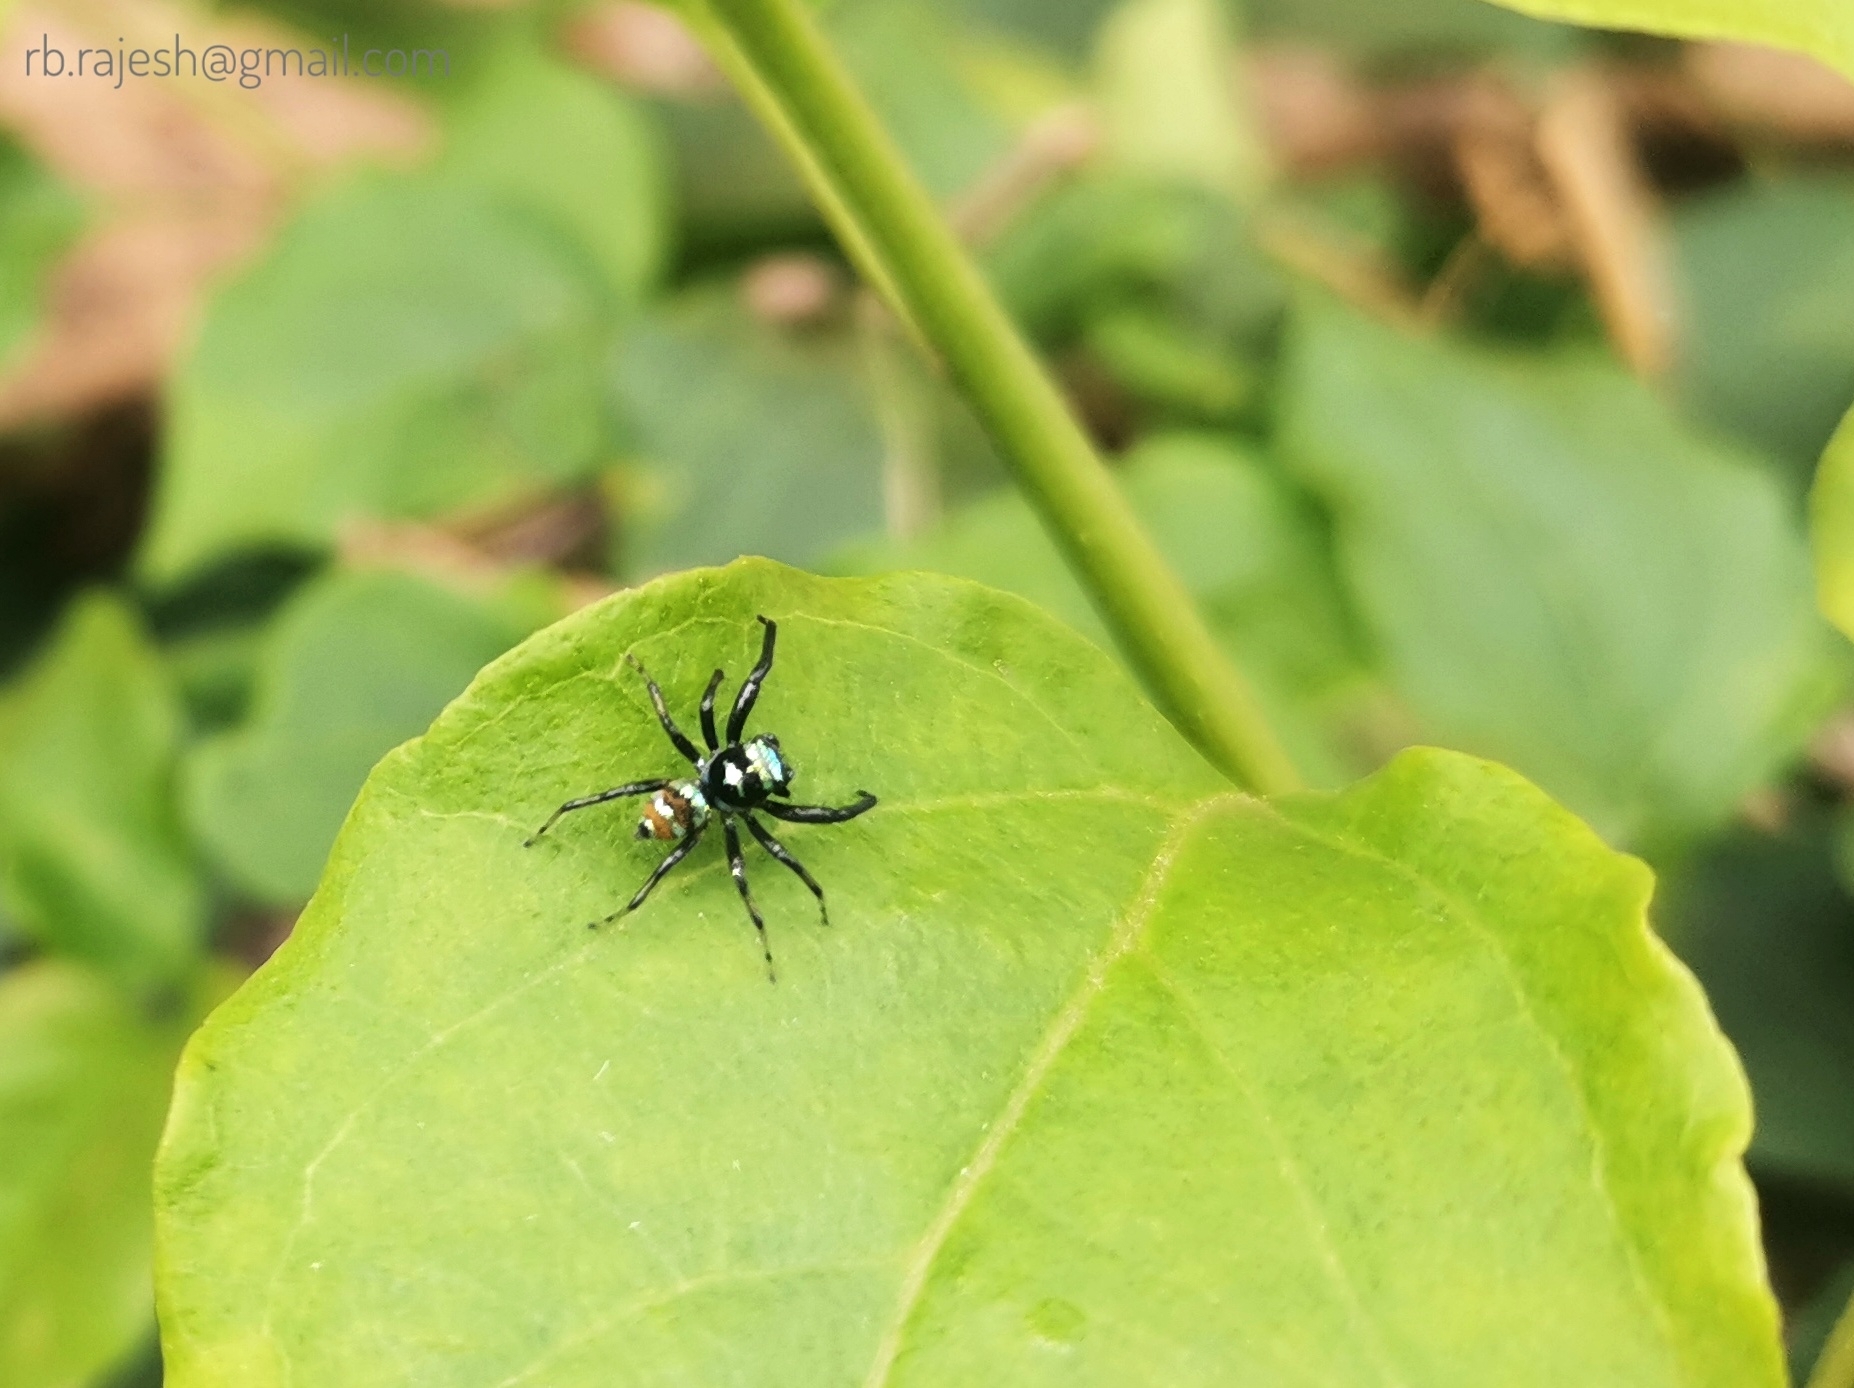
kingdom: Animalia
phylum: Arthropoda
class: Arachnida
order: Araneae
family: Salticidae
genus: Phintella
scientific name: Phintella vittata
